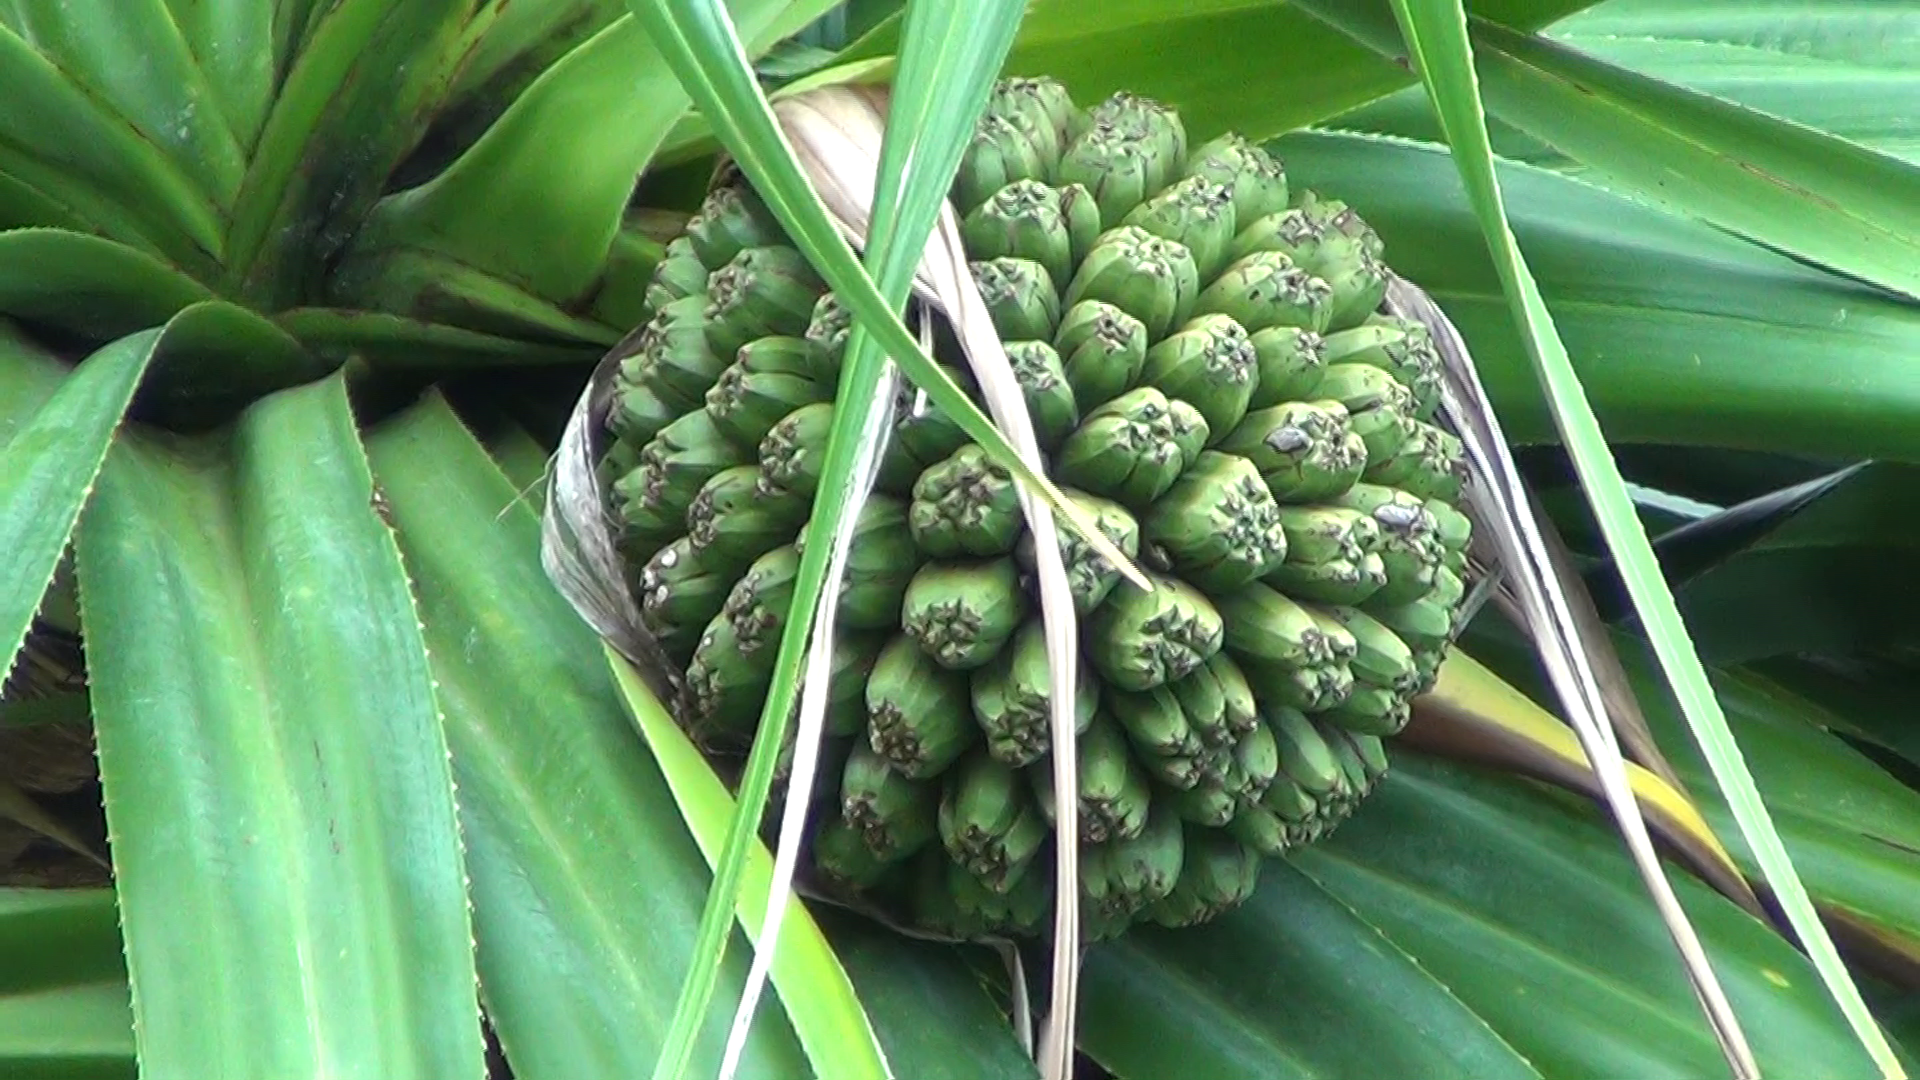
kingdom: Plantae
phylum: Tracheophyta
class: Liliopsida
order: Pandanales
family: Pandanaceae
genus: Pandanus
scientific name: Pandanus tectorius
